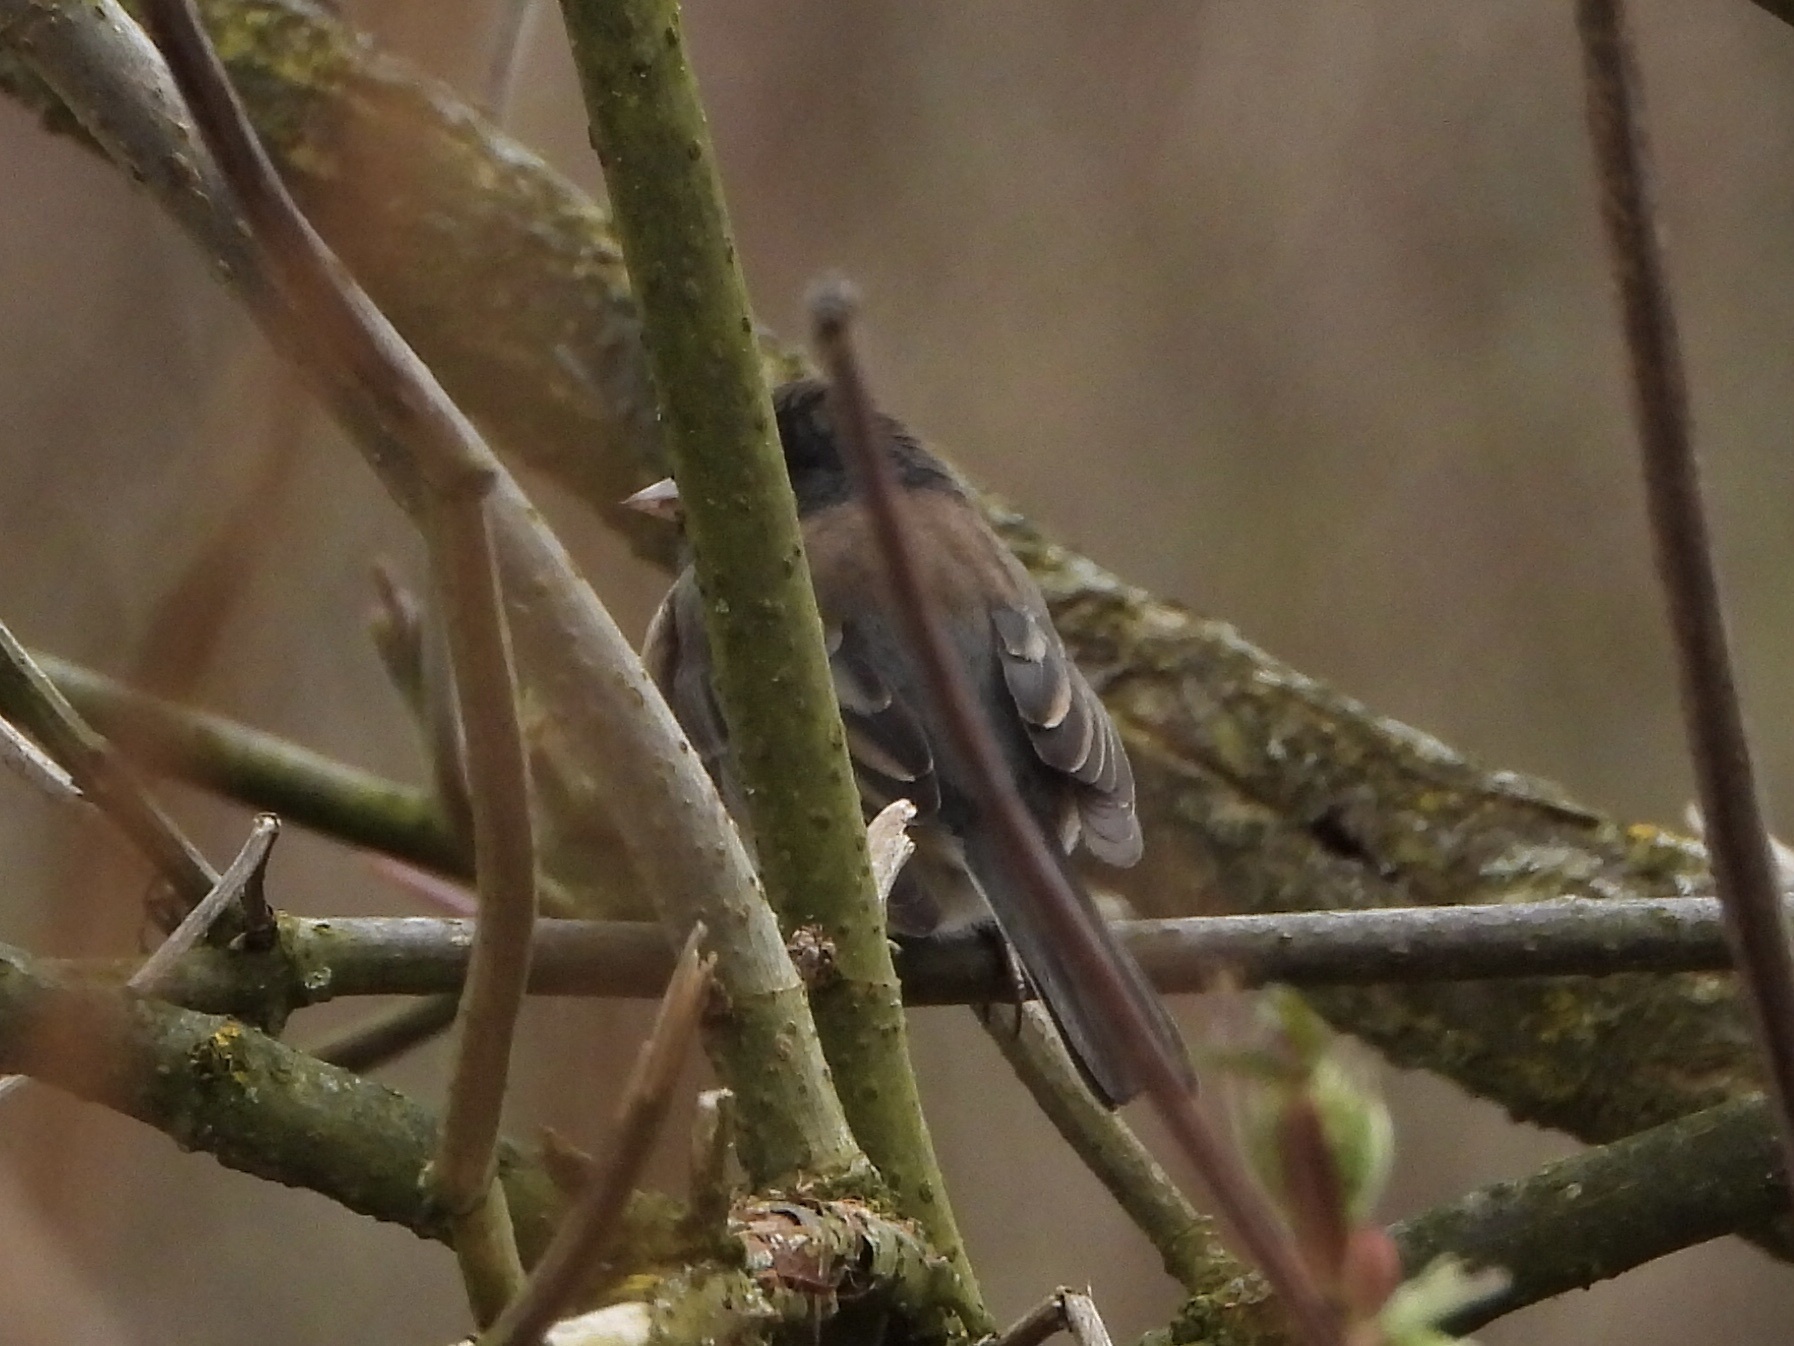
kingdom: Animalia
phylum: Chordata
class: Aves
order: Passeriformes
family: Passerellidae
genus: Junco
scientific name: Junco hyemalis
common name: Dark-eyed junco
